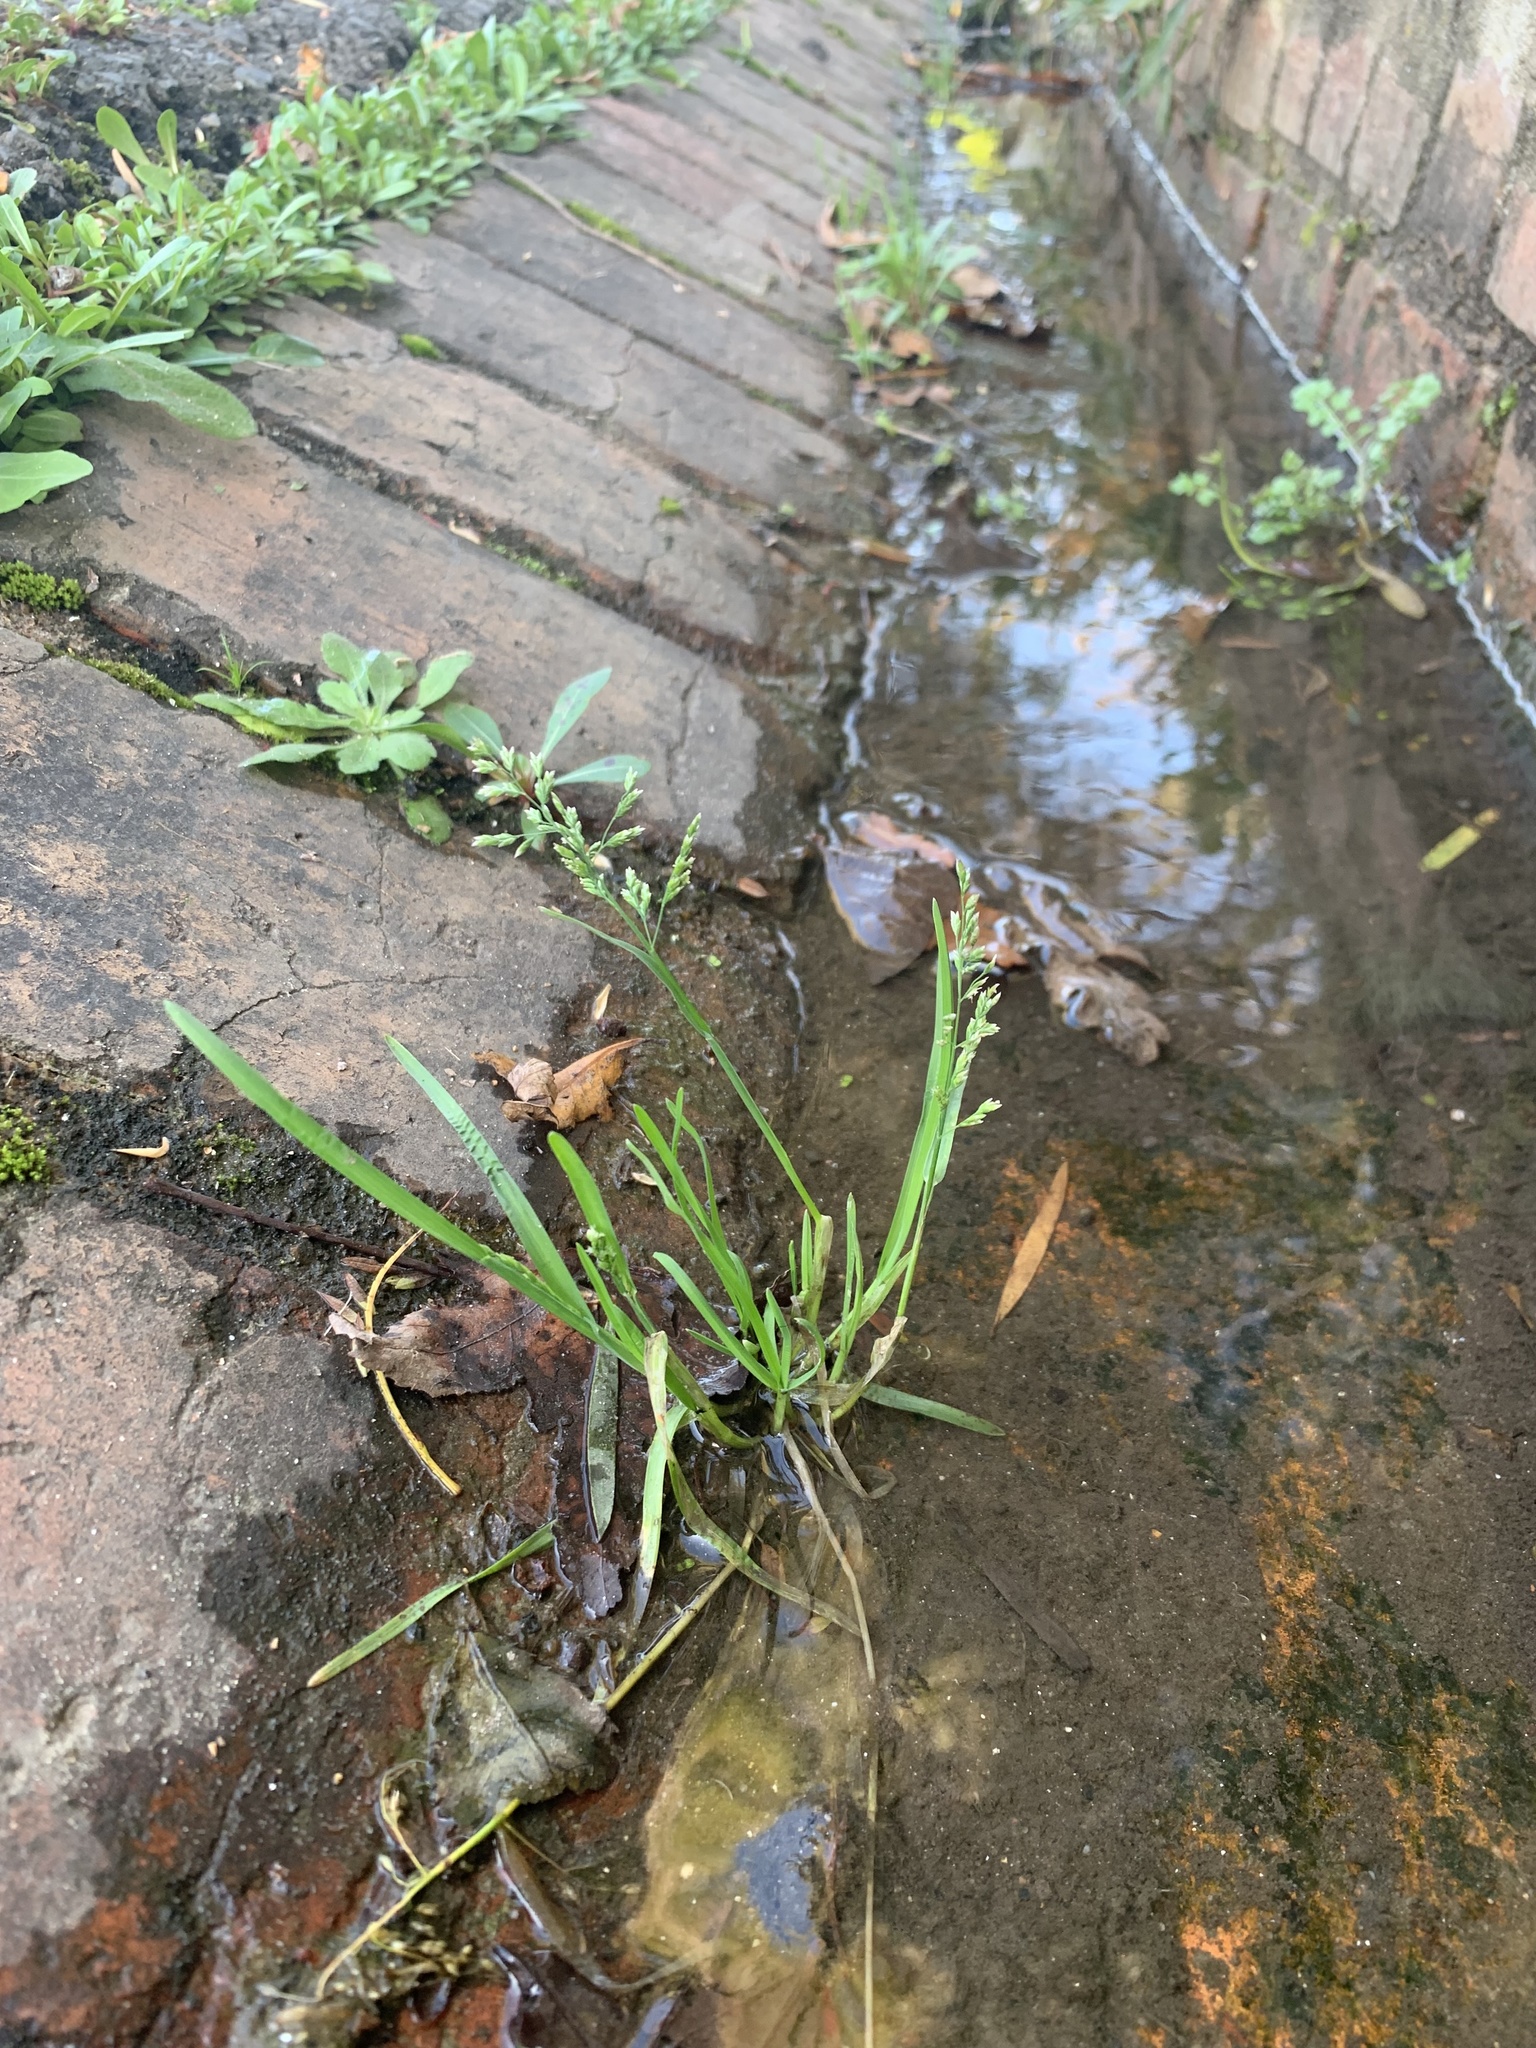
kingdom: Plantae
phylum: Tracheophyta
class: Liliopsida
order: Poales
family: Poaceae
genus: Poa
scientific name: Poa annua
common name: Annual bluegrass
